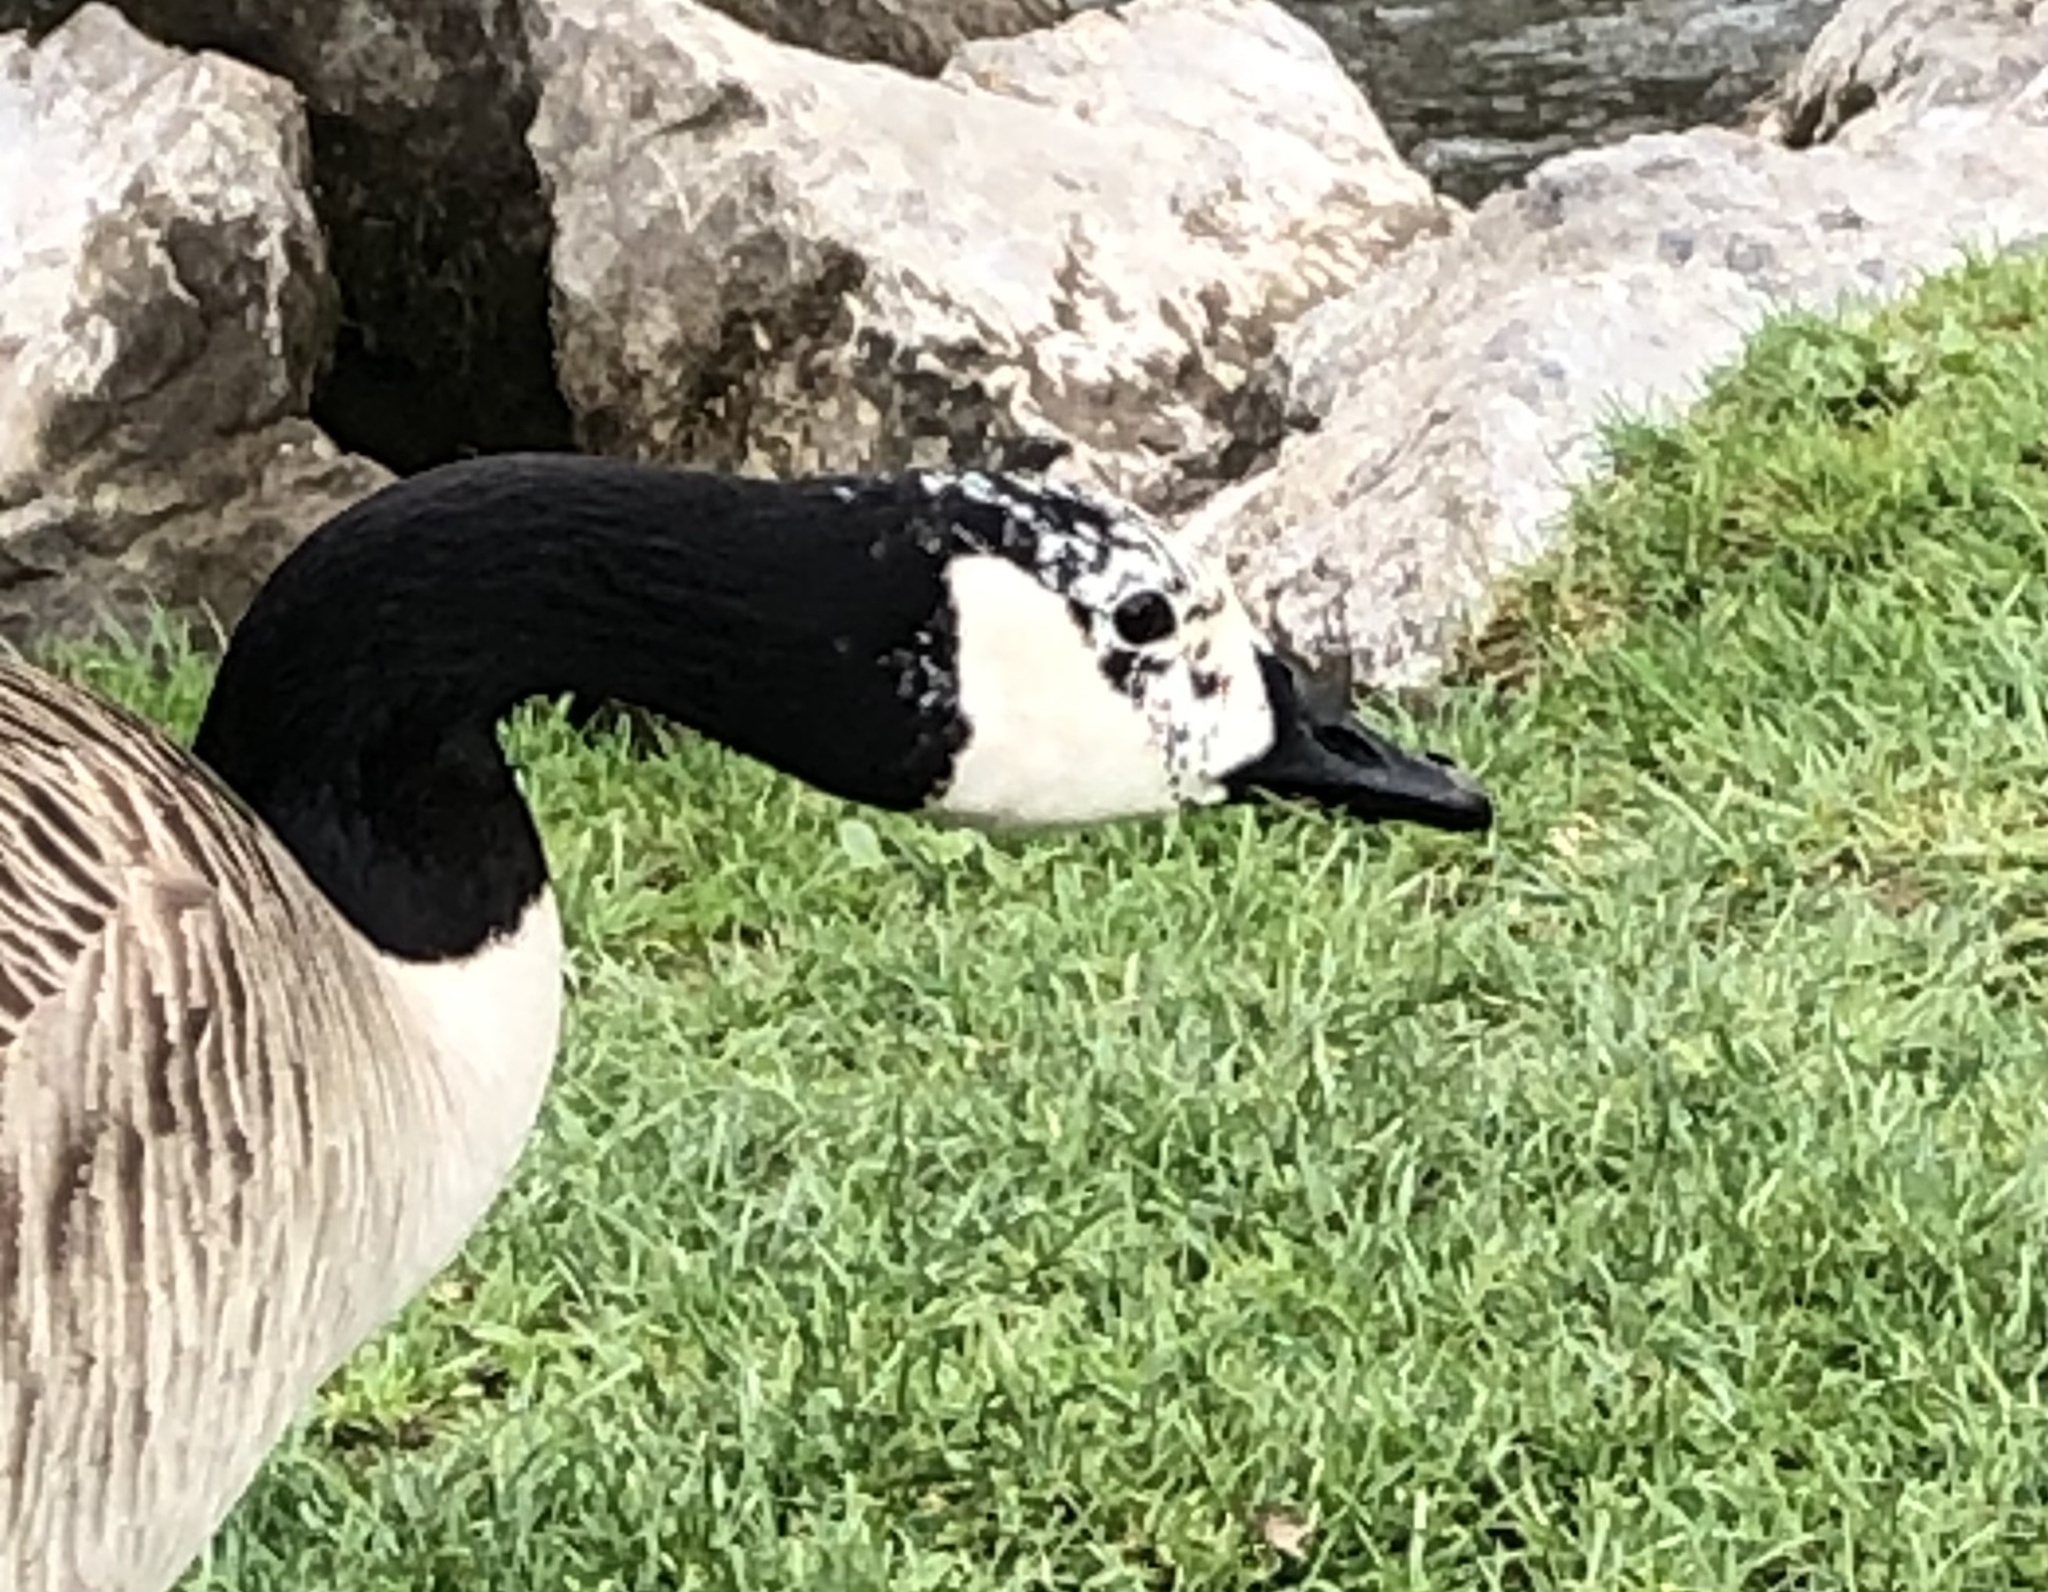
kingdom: Animalia
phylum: Chordata
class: Aves
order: Anseriformes
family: Anatidae
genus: Branta
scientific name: Branta canadensis
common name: Canada goose
